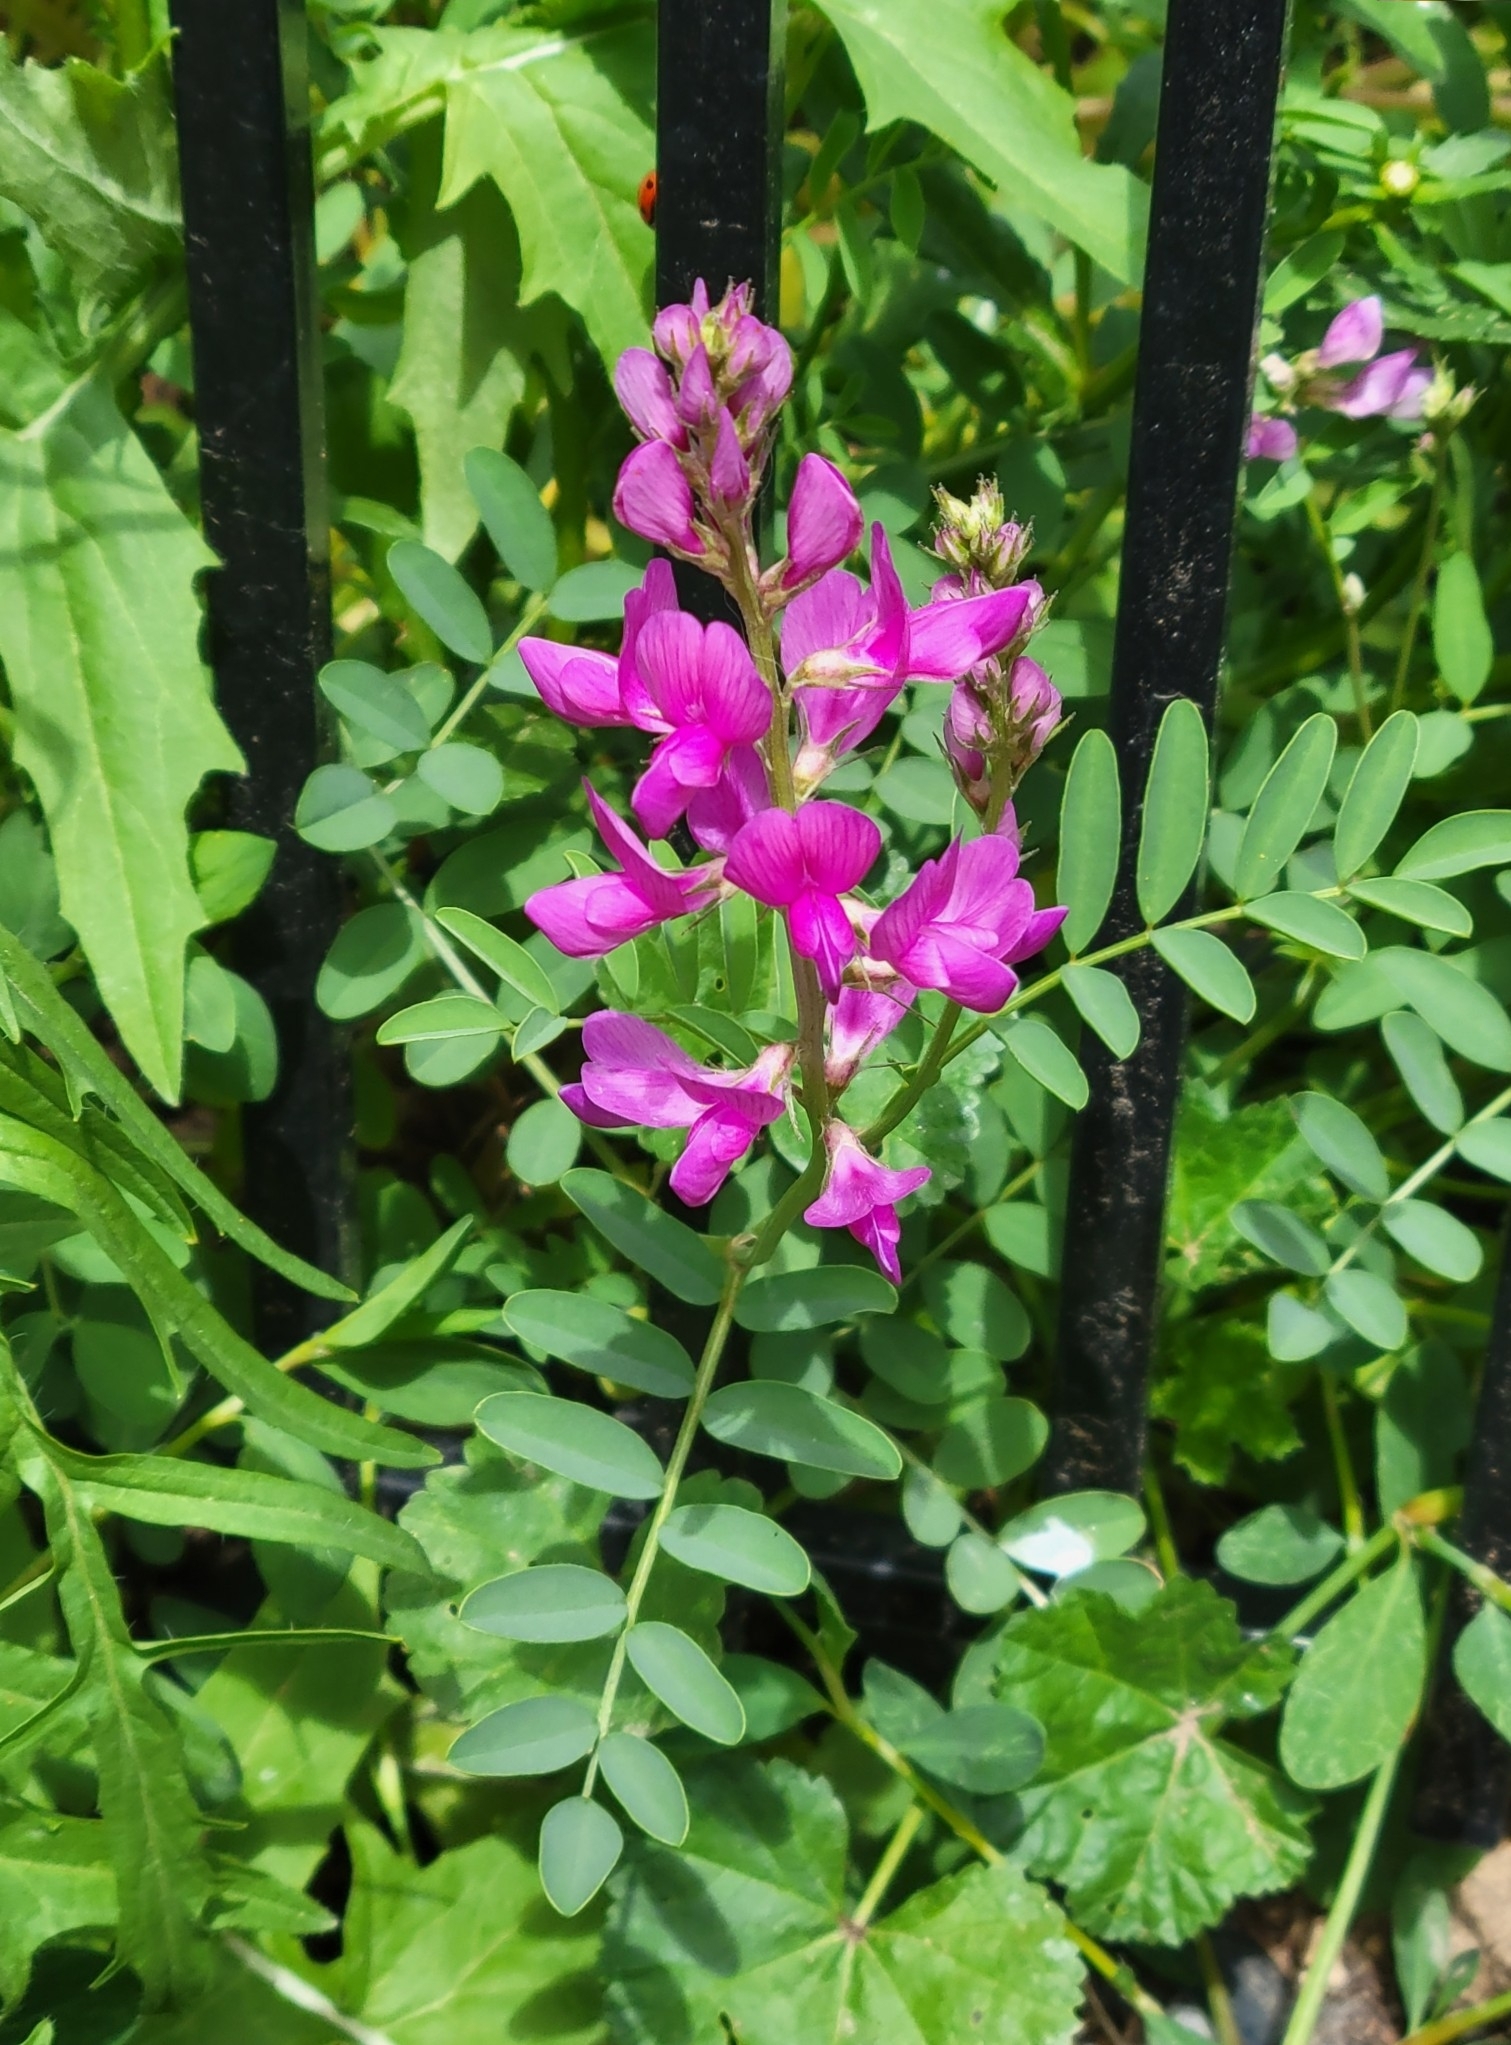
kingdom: Plantae
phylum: Tracheophyta
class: Magnoliopsida
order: Fabales
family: Fabaceae
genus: Hedysarum
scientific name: Hedysarum boreale
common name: Northern sweet-vetch
